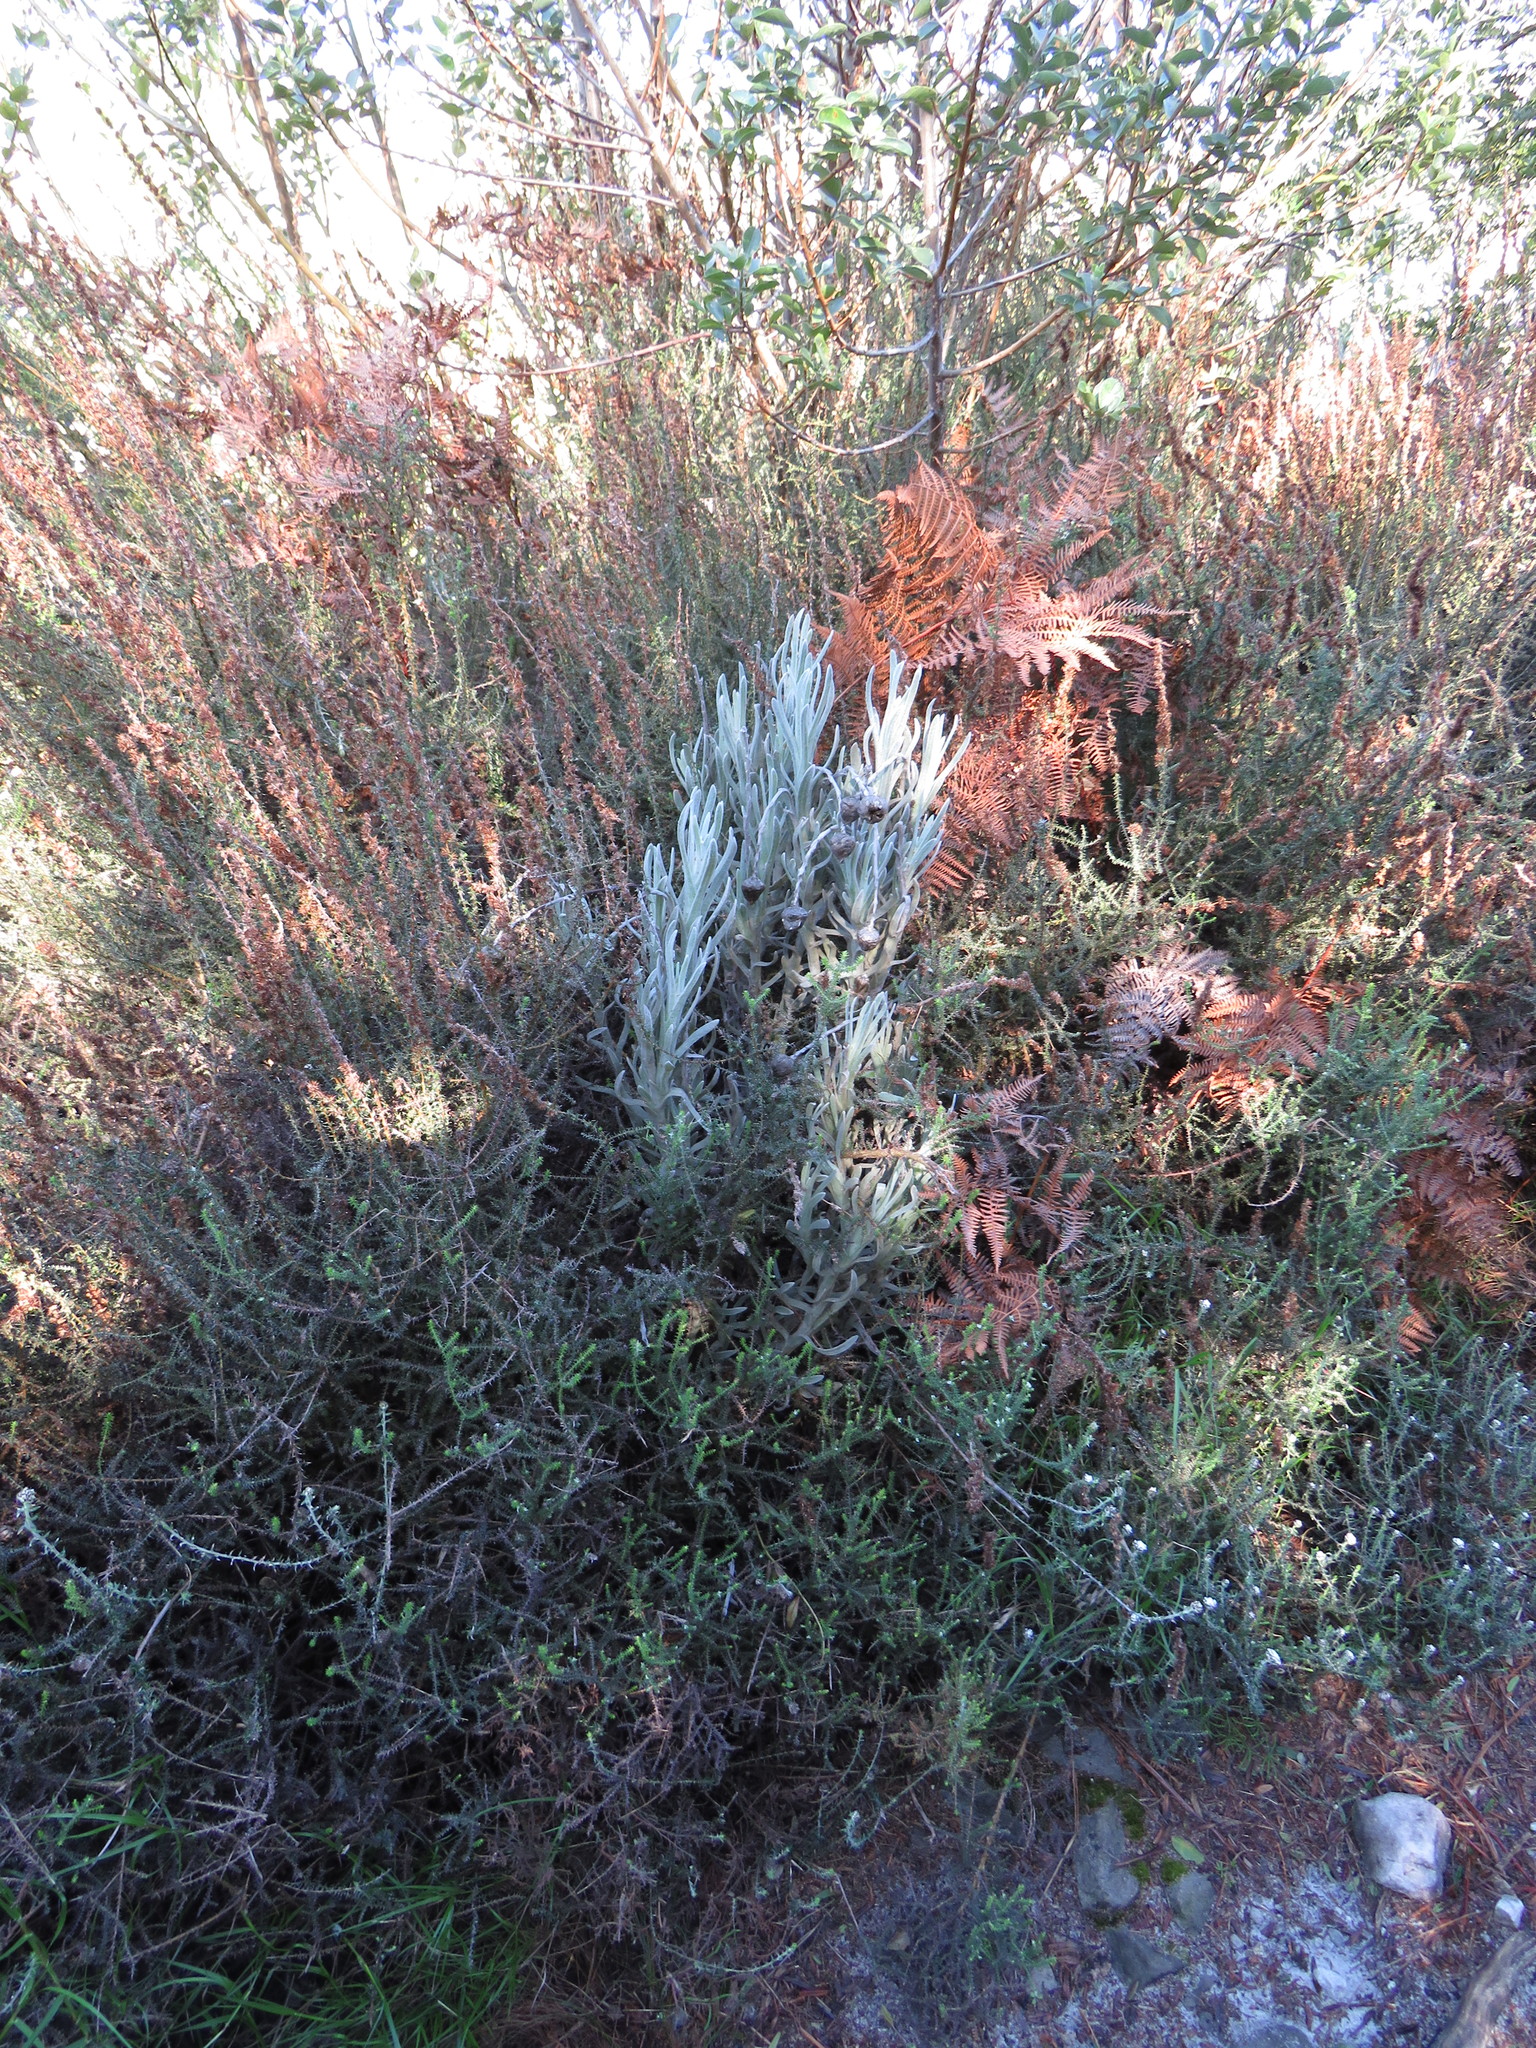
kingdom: Plantae
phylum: Tracheophyta
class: Magnoliopsida
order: Asterales
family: Asteraceae
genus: Syncarpha
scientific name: Syncarpha vestita
